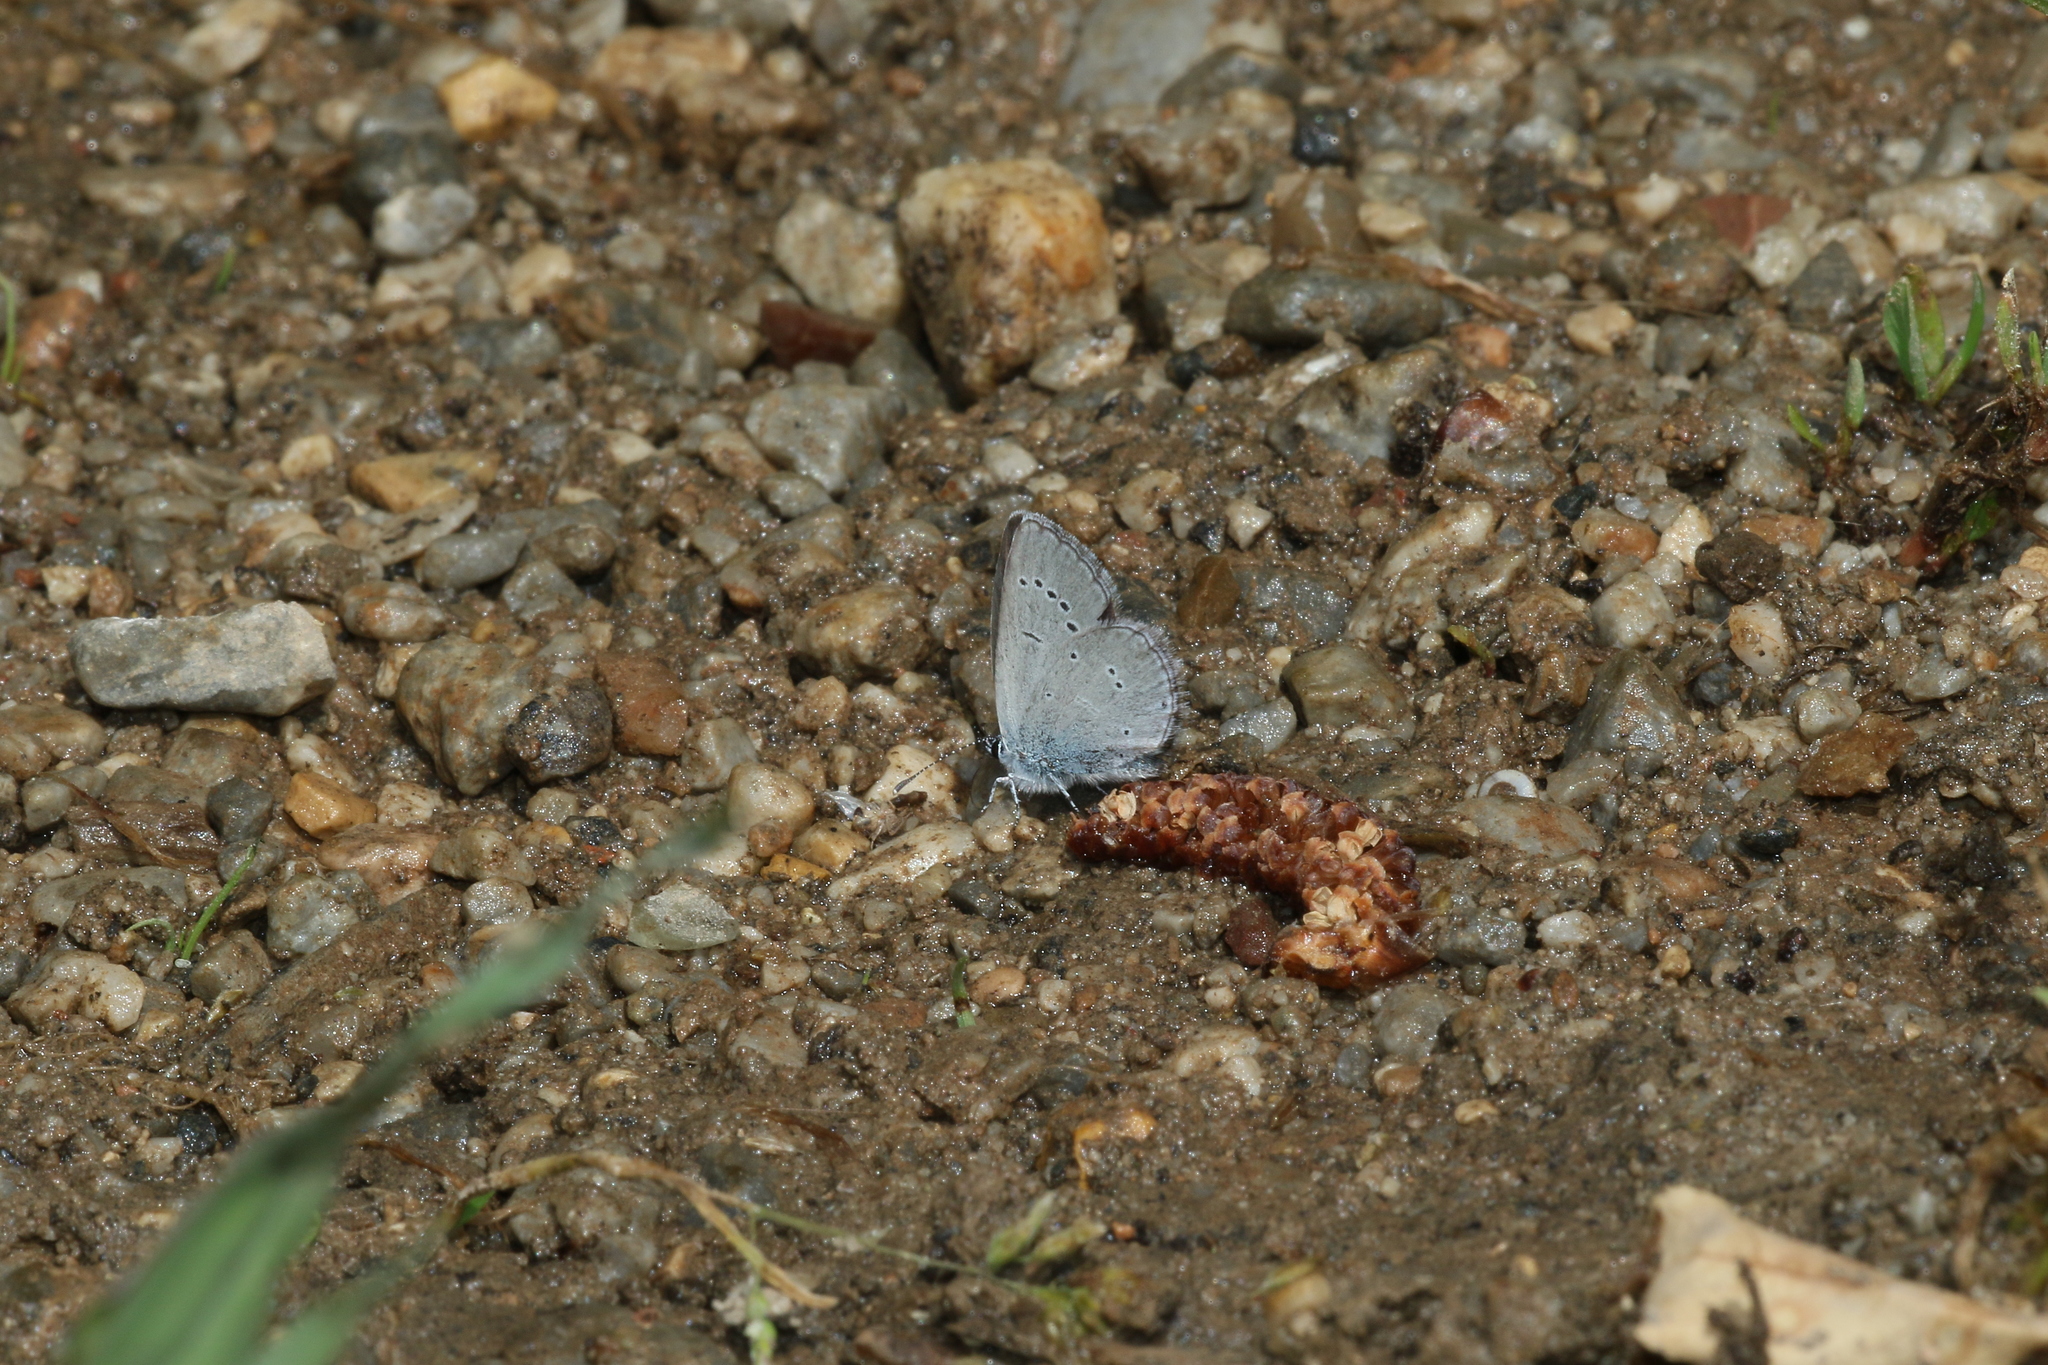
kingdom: Animalia
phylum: Arthropoda
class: Insecta
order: Lepidoptera
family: Lycaenidae
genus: Cupido
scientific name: Cupido minimus
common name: Small blue
